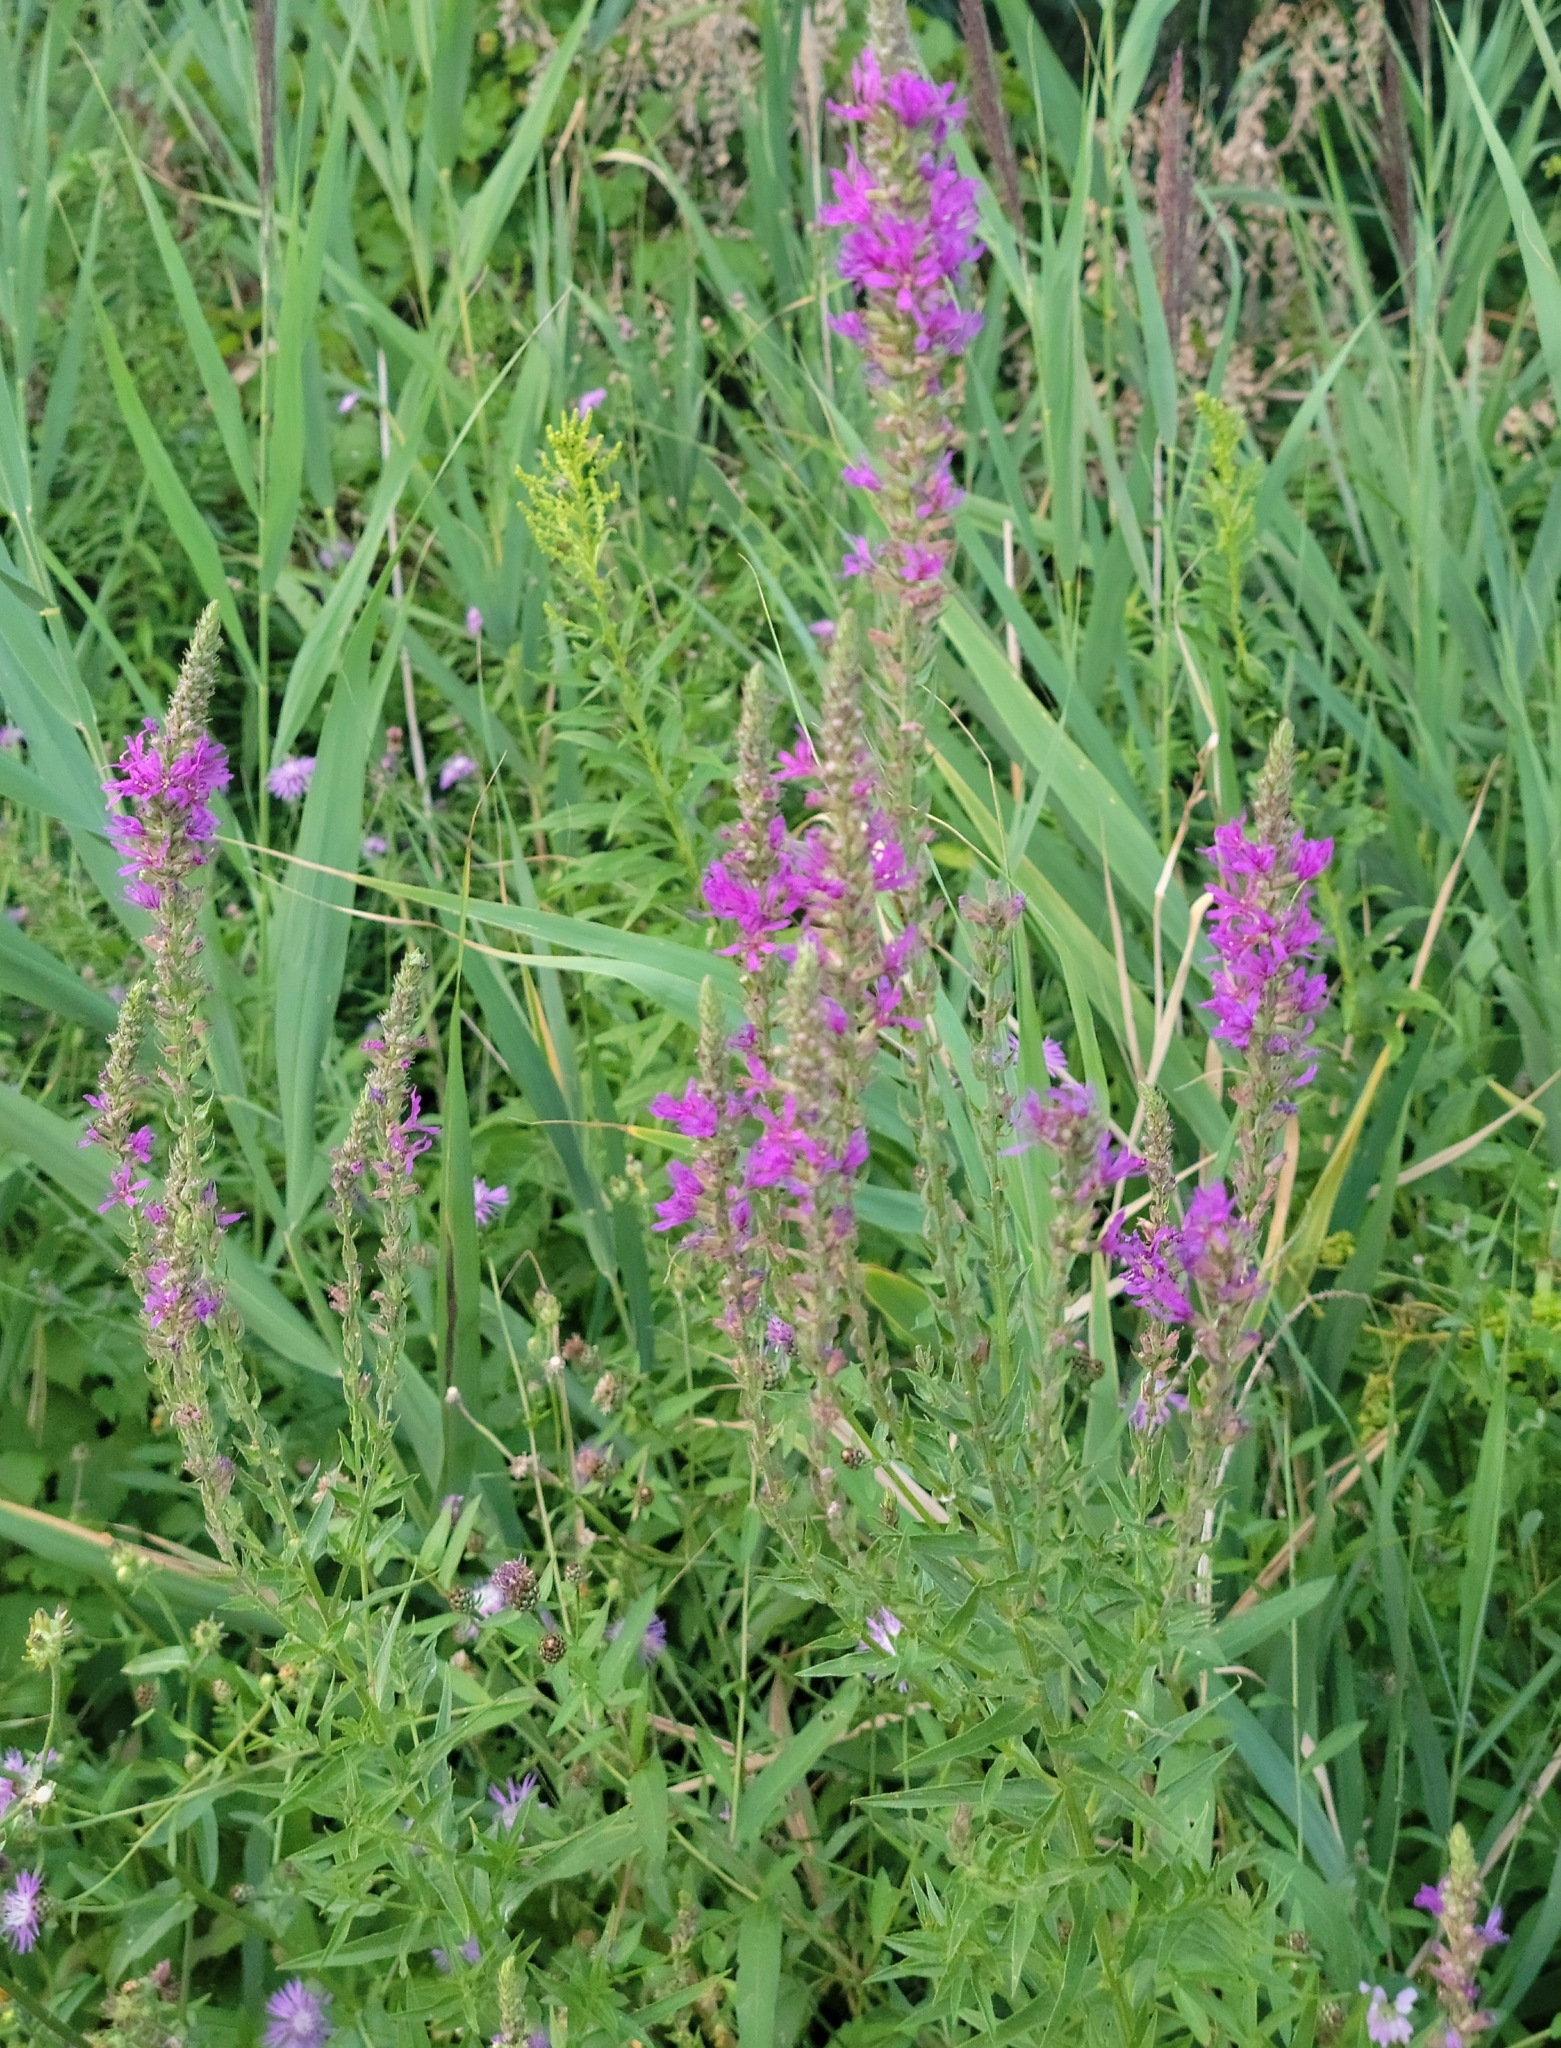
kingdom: Plantae
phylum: Tracheophyta
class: Magnoliopsida
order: Myrtales
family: Lythraceae
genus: Lythrum
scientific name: Lythrum salicaria
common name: Purple loosestrife
